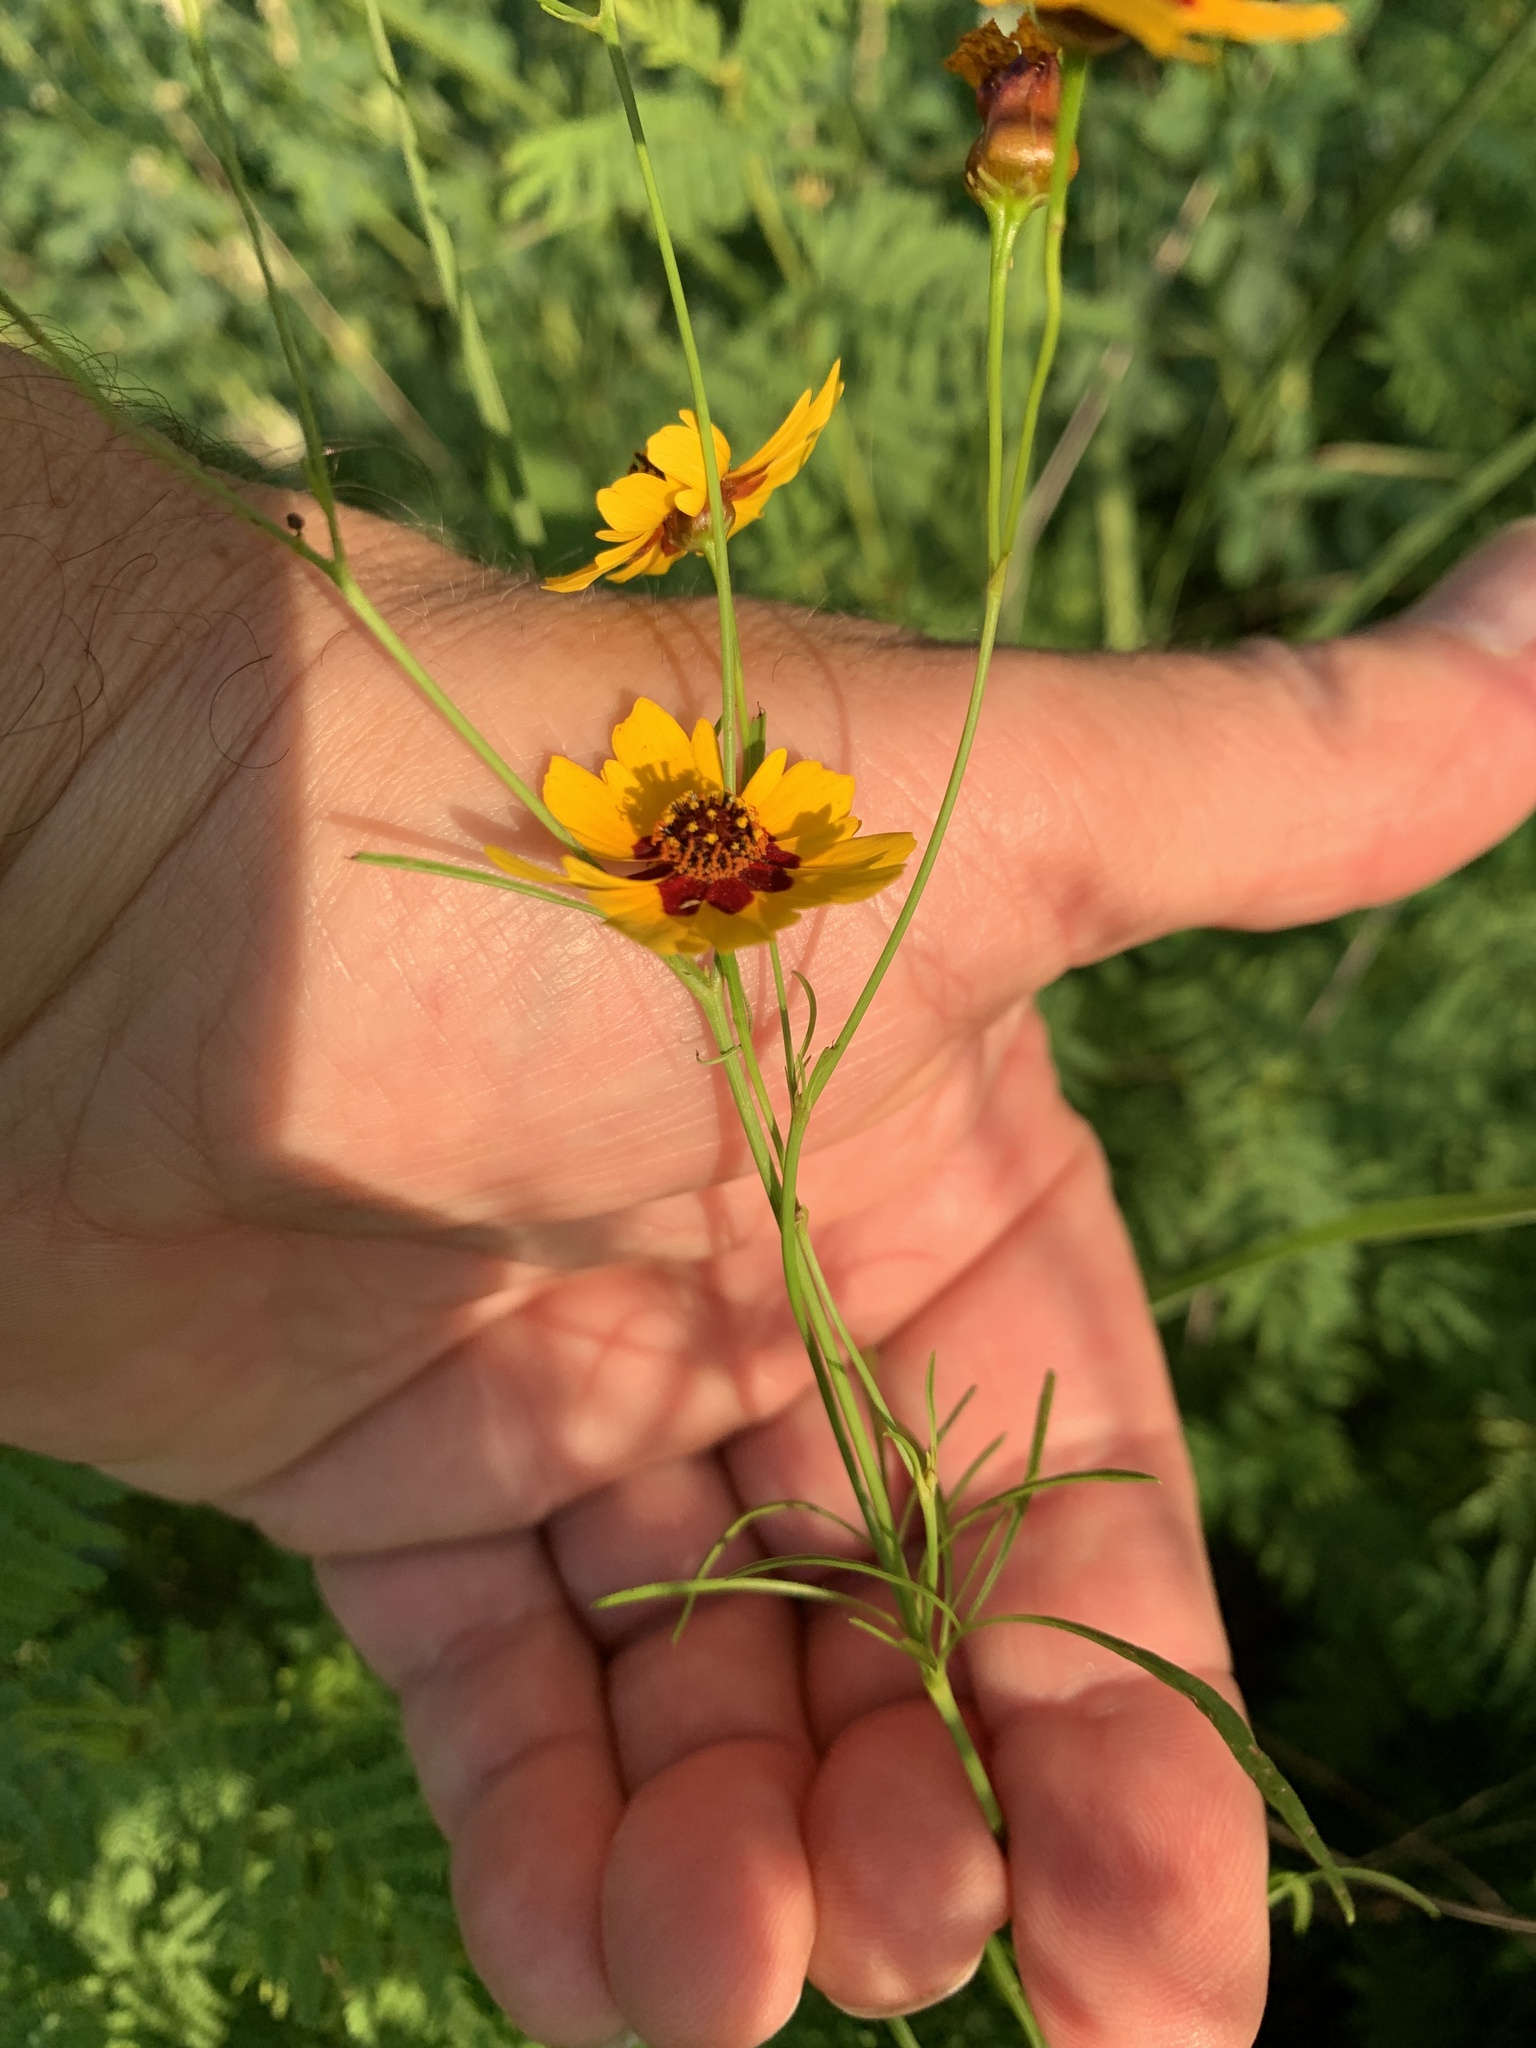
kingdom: Plantae
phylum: Tracheophyta
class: Magnoliopsida
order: Asterales
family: Asteraceae
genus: Coreopsis
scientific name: Coreopsis tinctoria
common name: Garden tickseed
